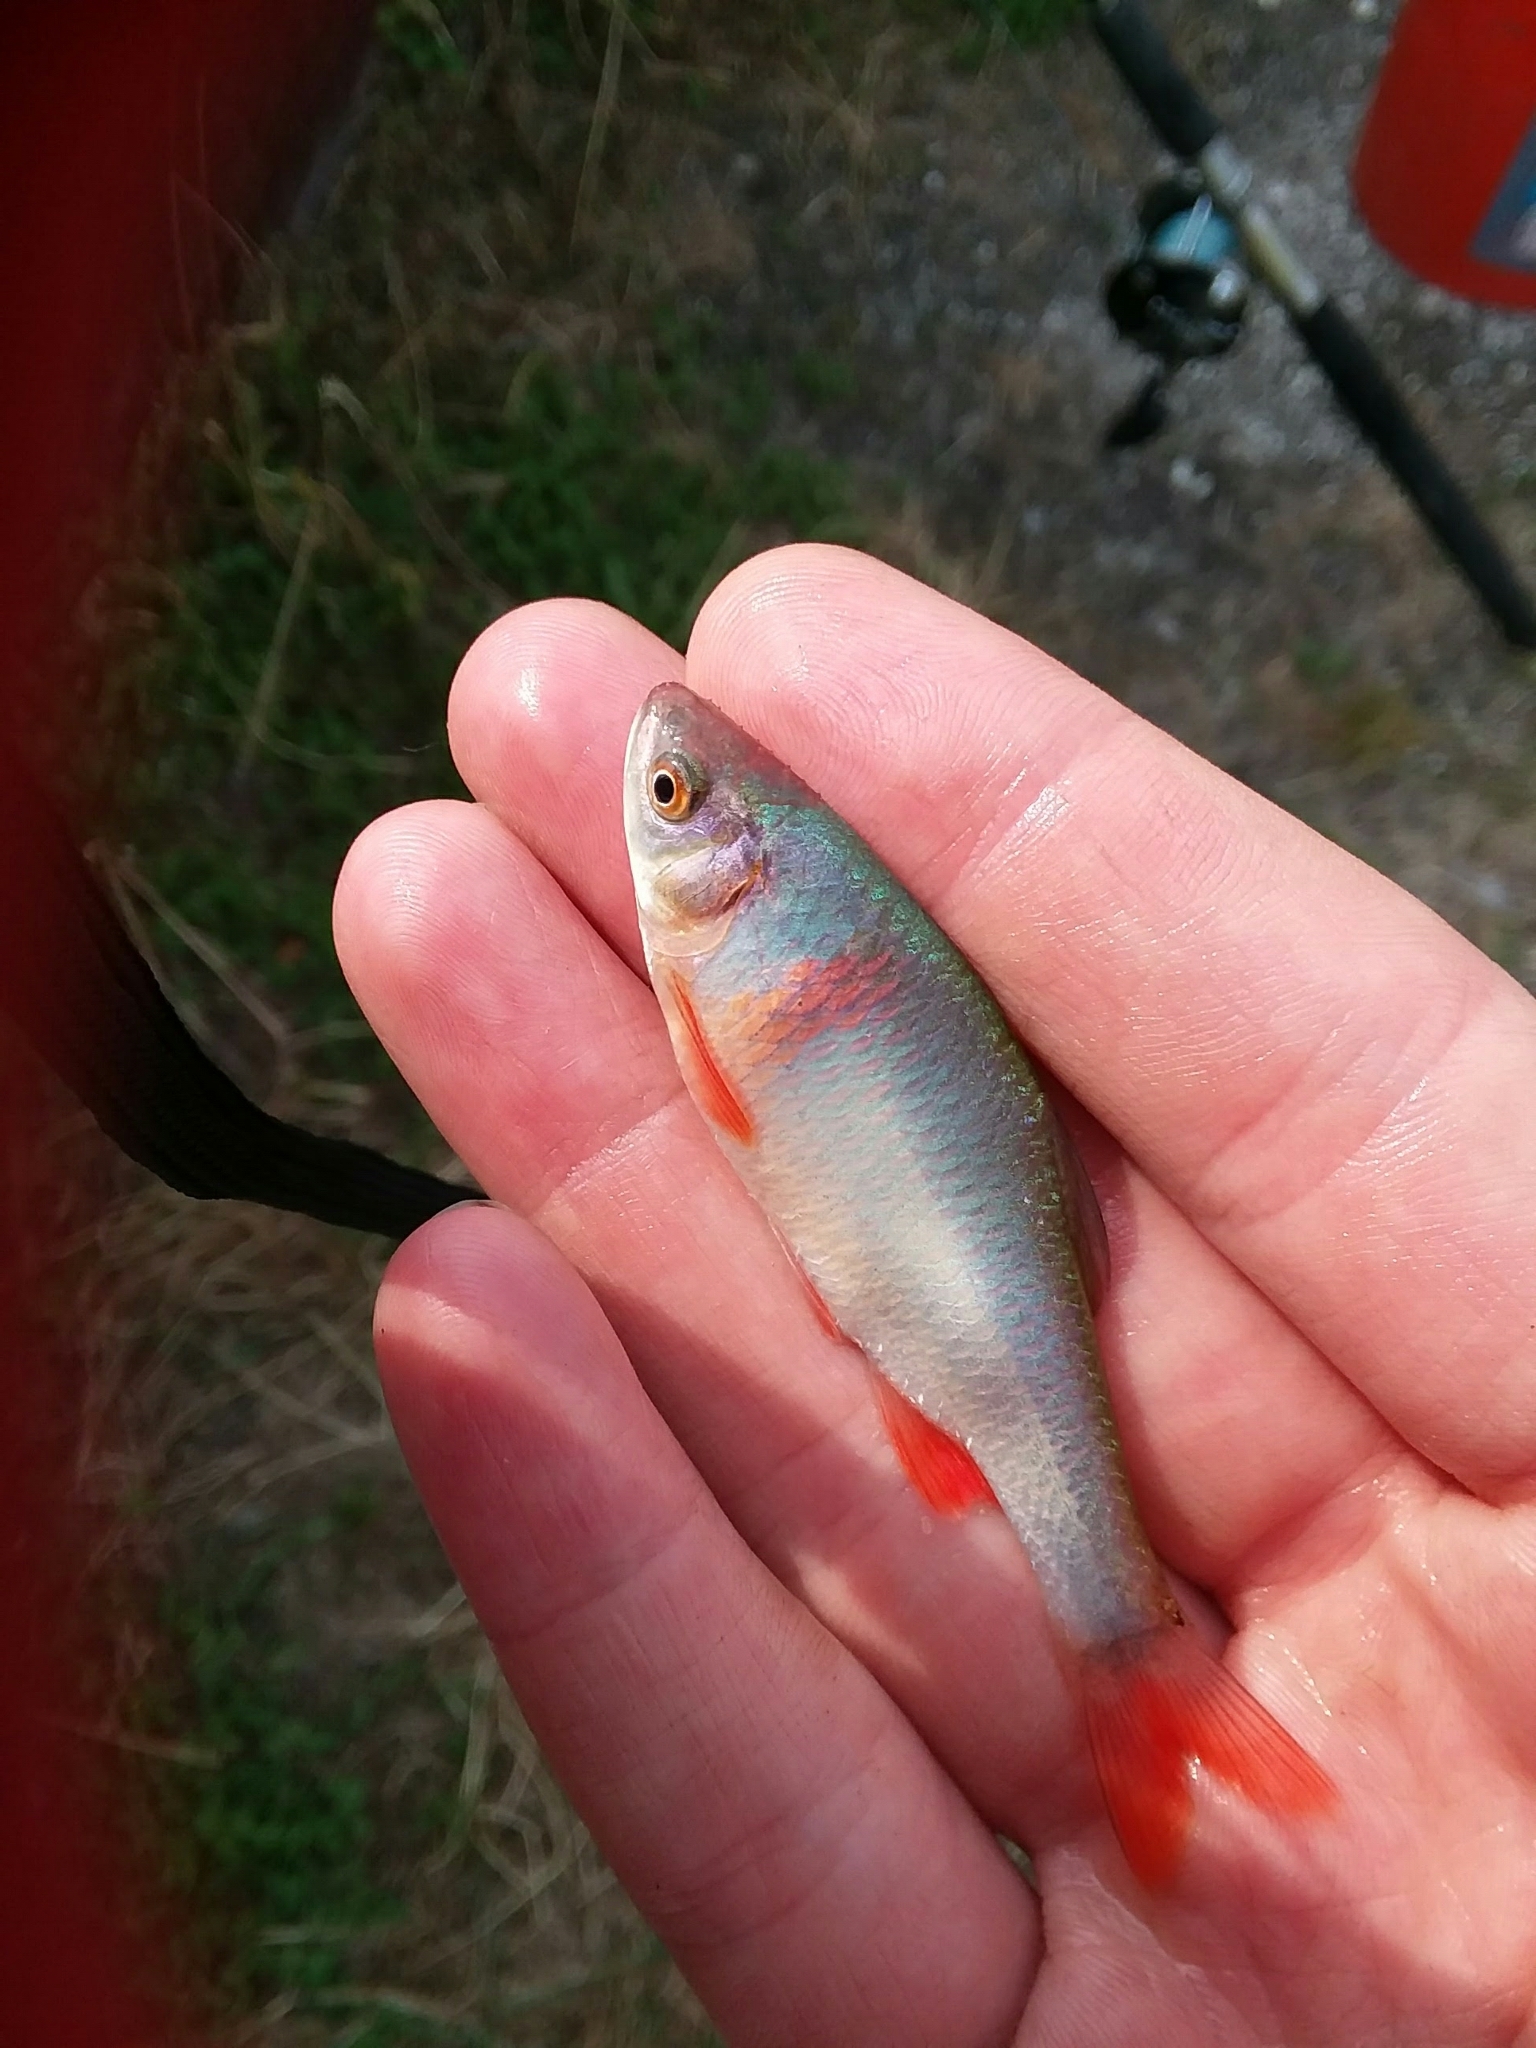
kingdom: Animalia
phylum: Chordata
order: Cypriniformes
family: Cyprinidae
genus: Cyprinella
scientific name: Cyprinella lutrensis
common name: Red shiner
